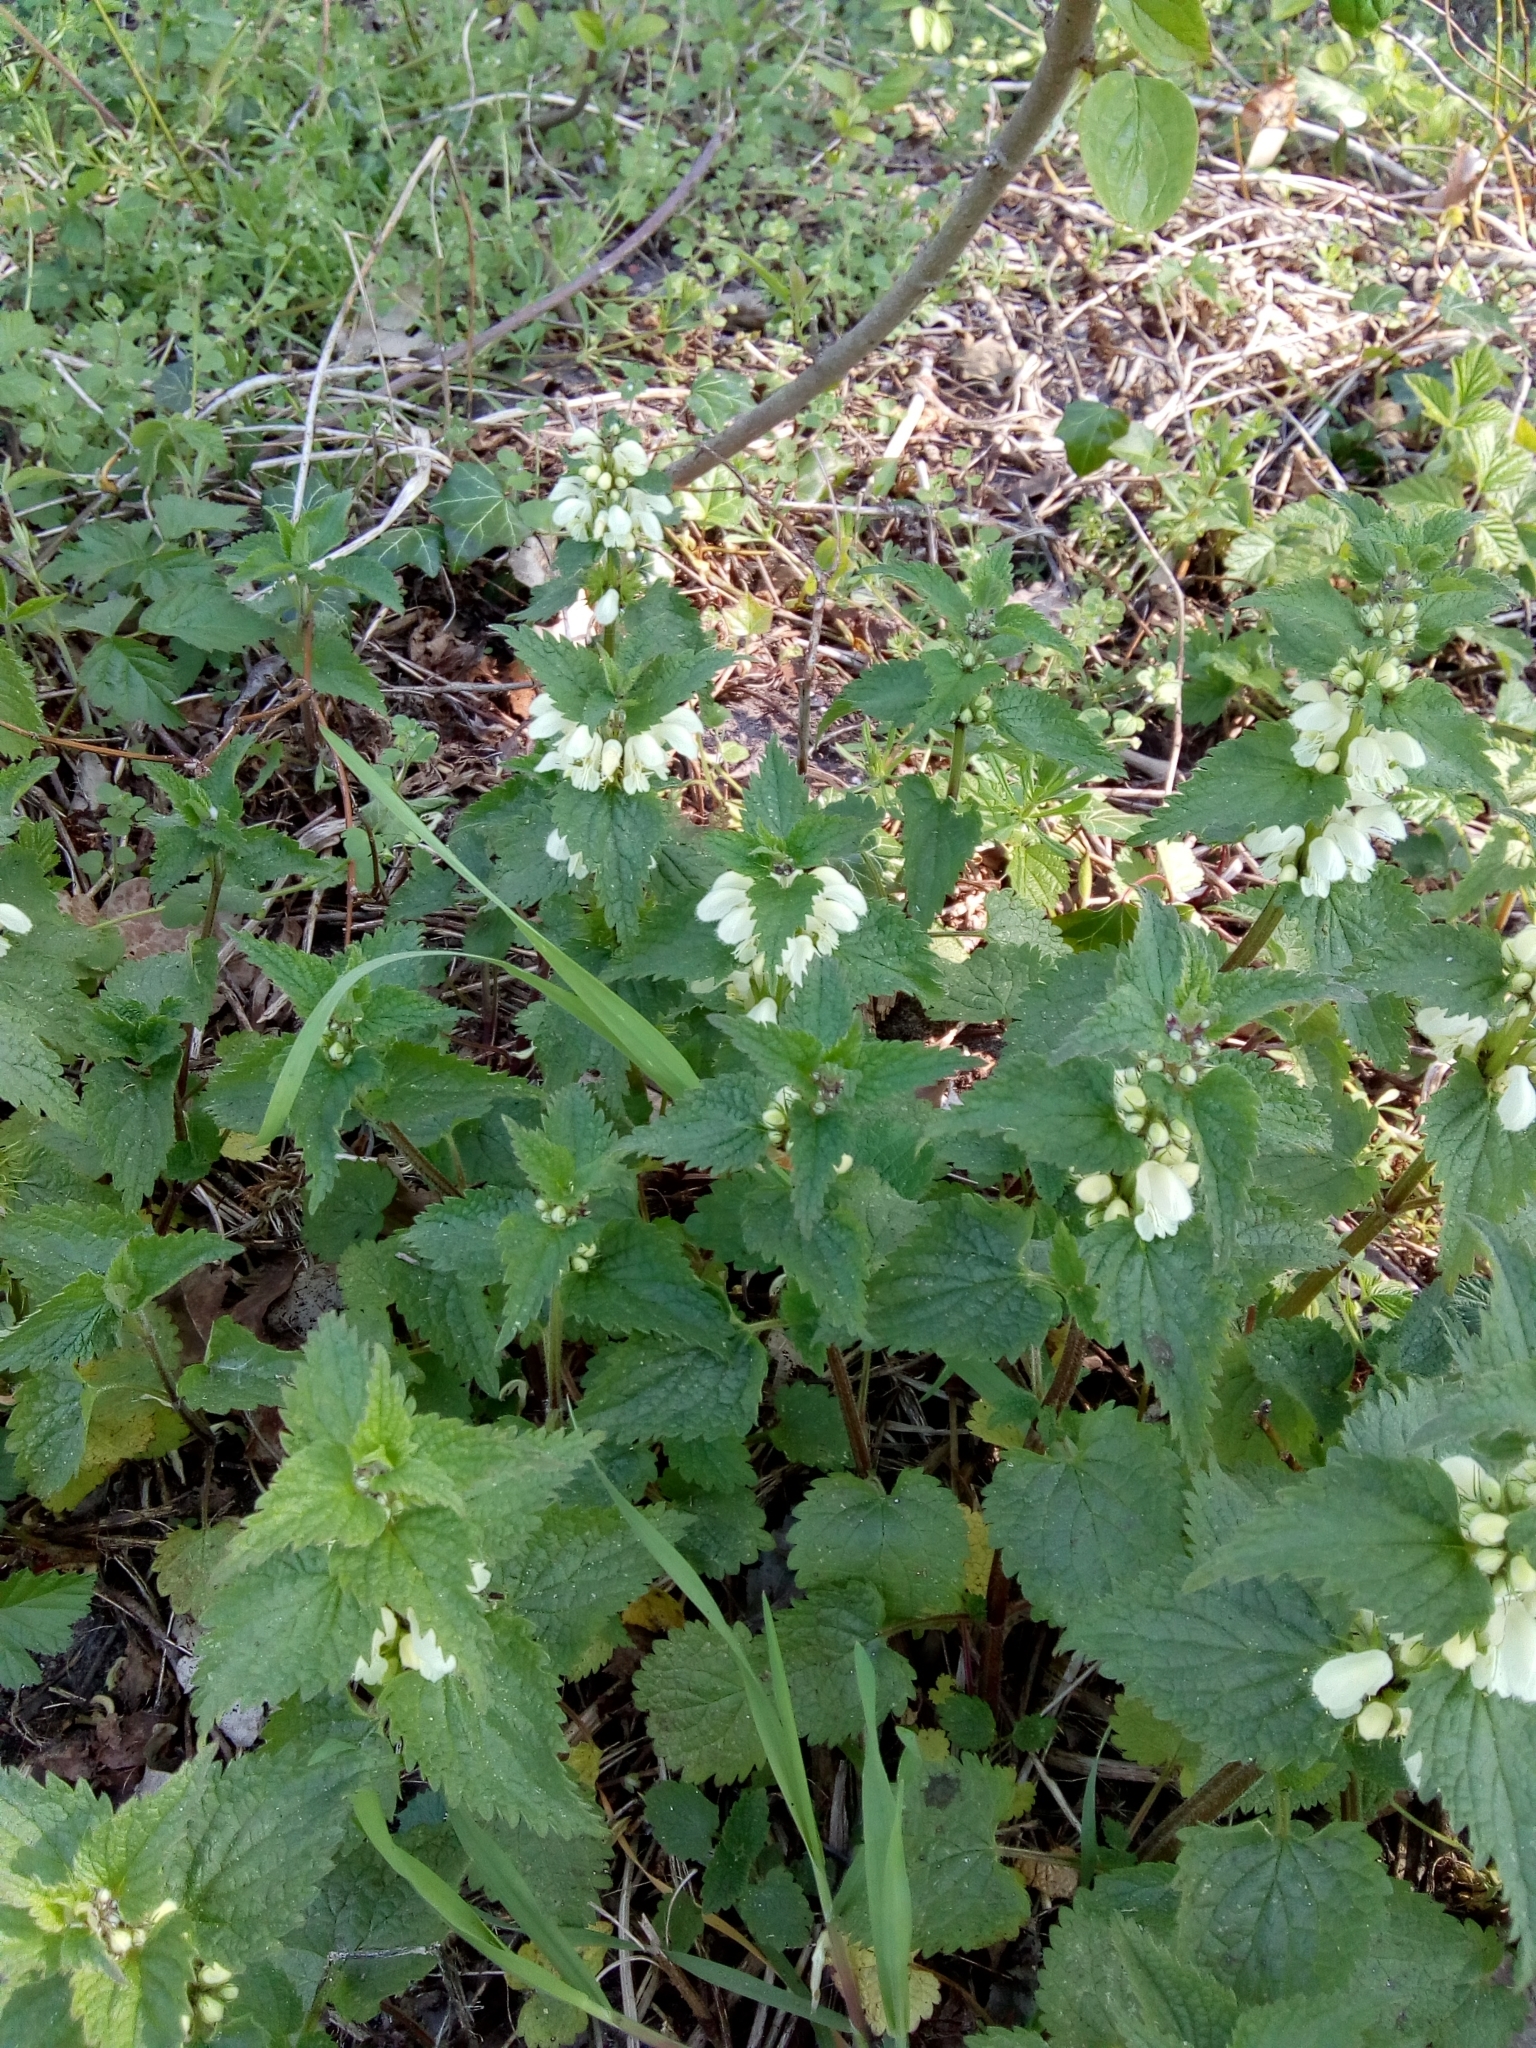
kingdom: Plantae
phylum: Tracheophyta
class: Magnoliopsida
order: Lamiales
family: Lamiaceae
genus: Lamium
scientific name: Lamium album
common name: White dead-nettle
